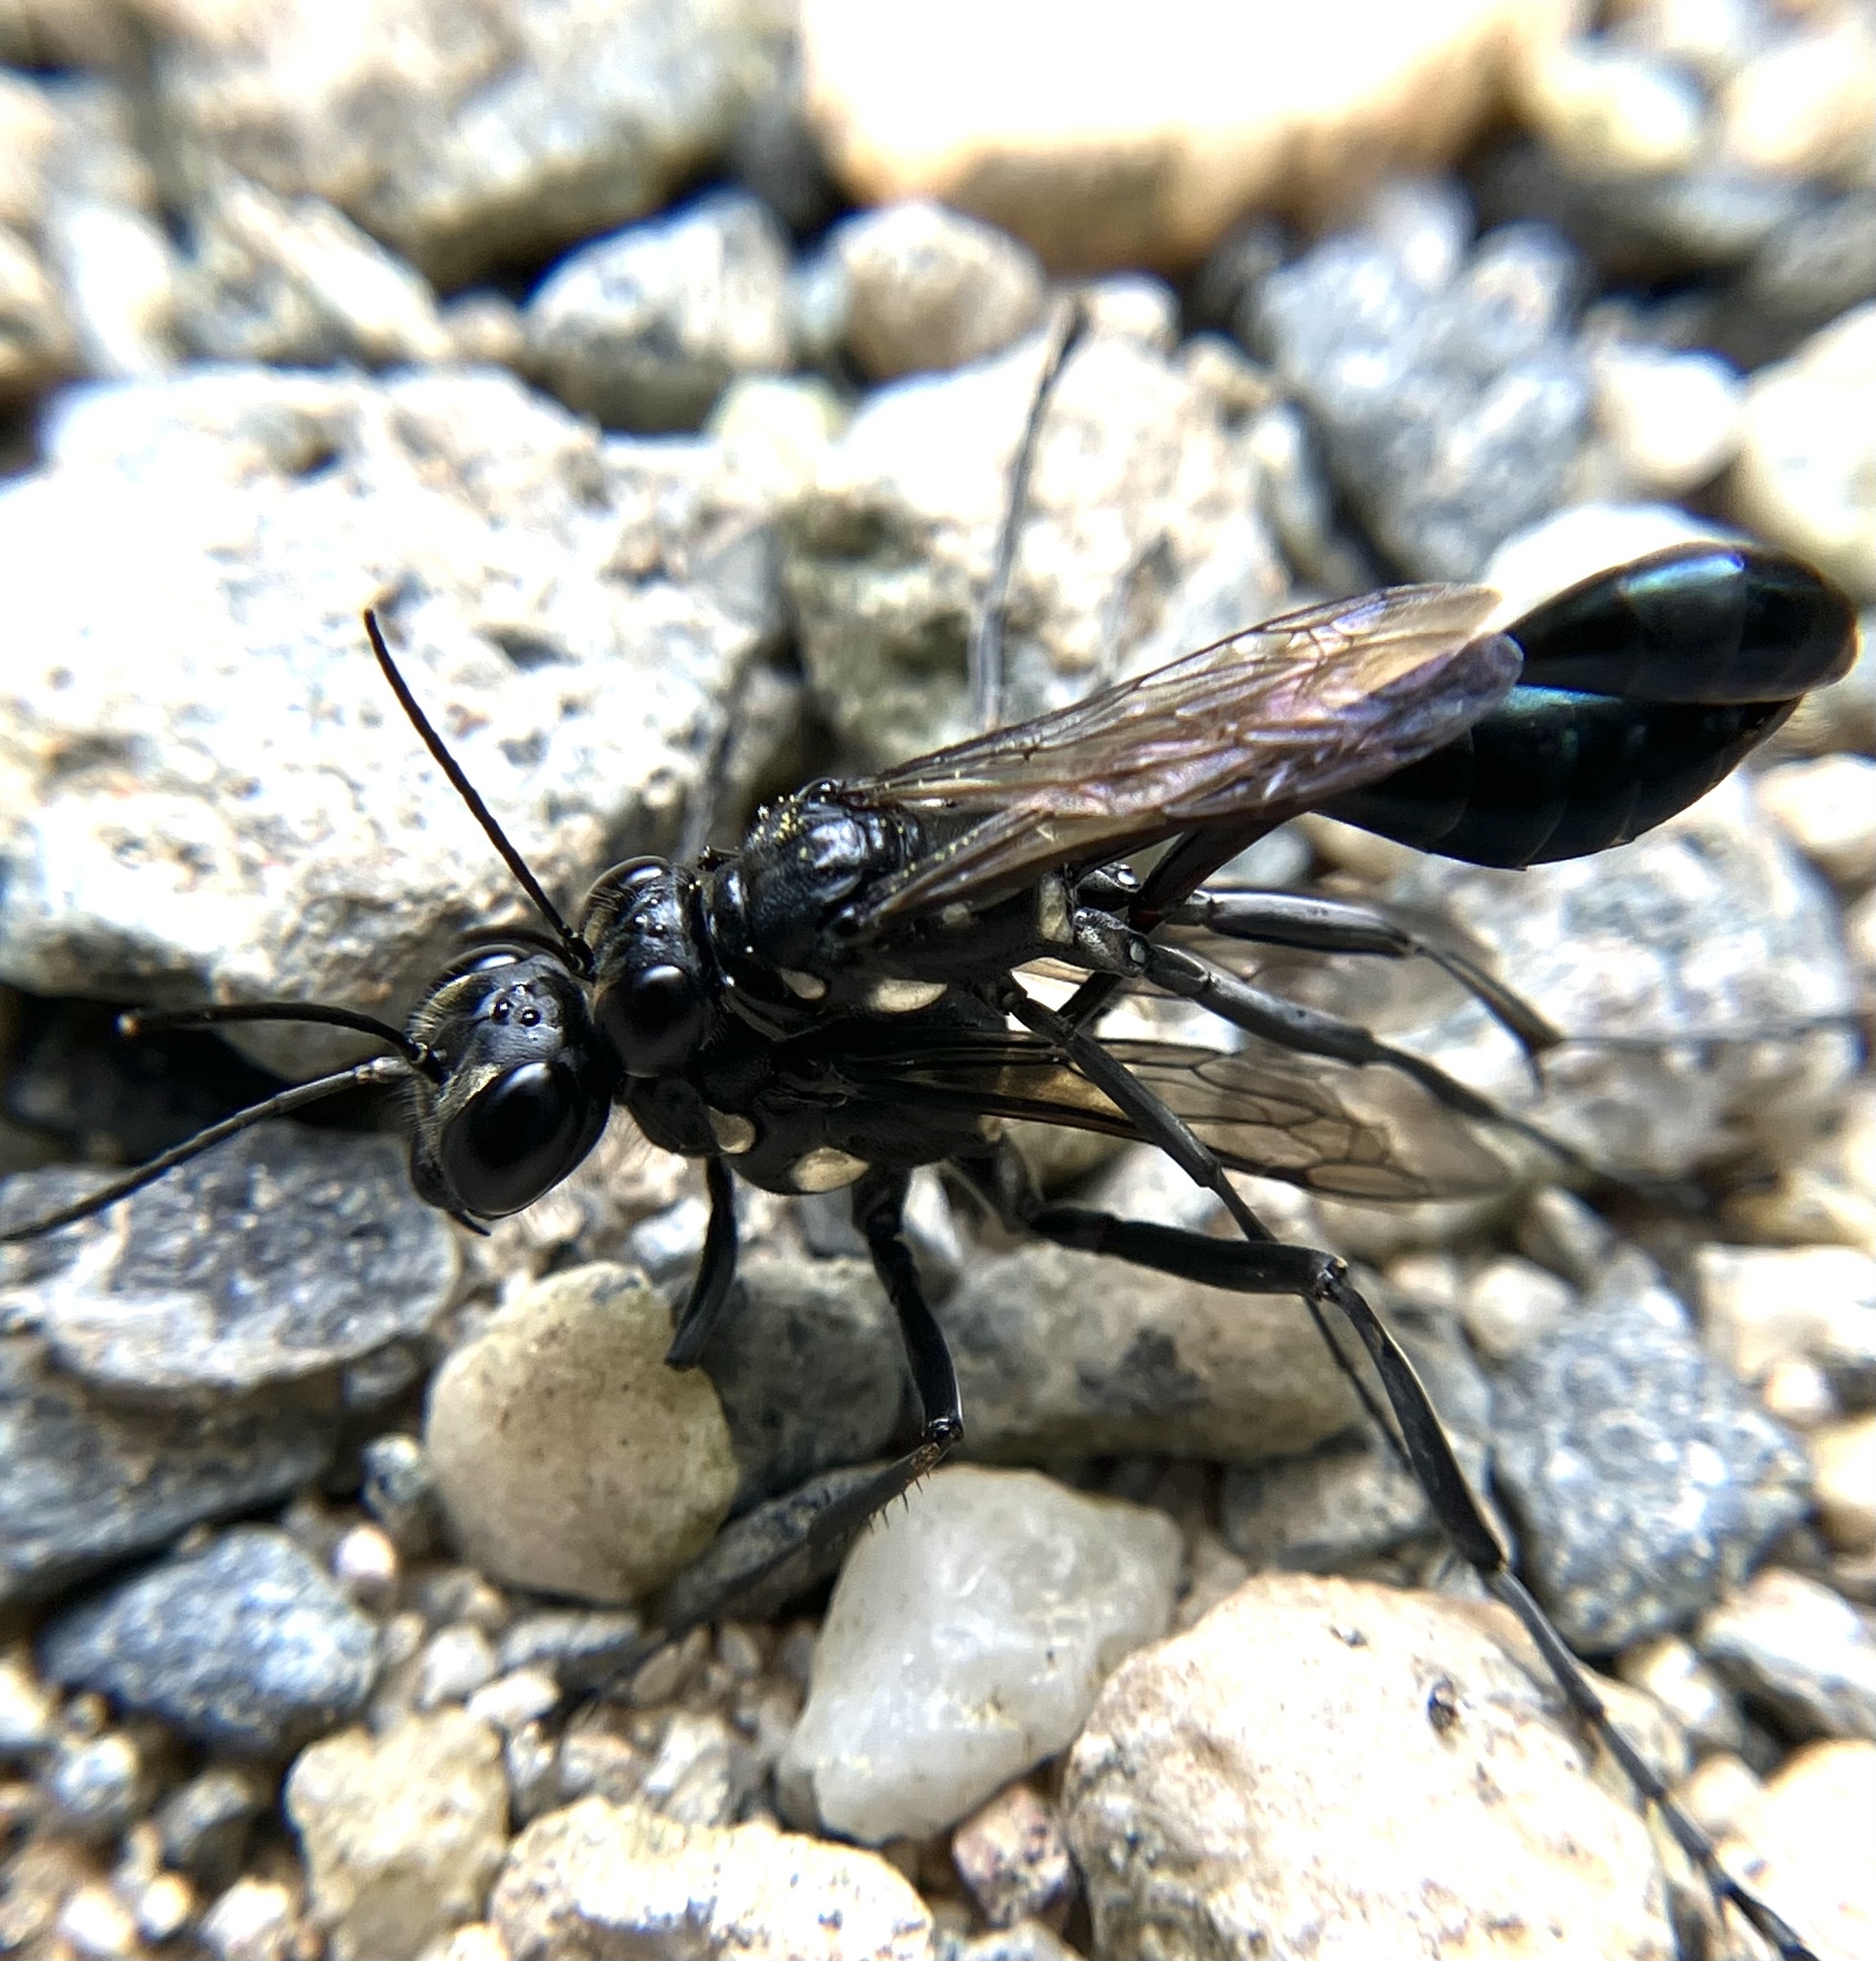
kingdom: Animalia
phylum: Arthropoda
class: Insecta
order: Hymenoptera
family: Sphecidae
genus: Eremnophila
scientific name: Eremnophila aureonotata
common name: Gold-marked thread-waisted wasp
